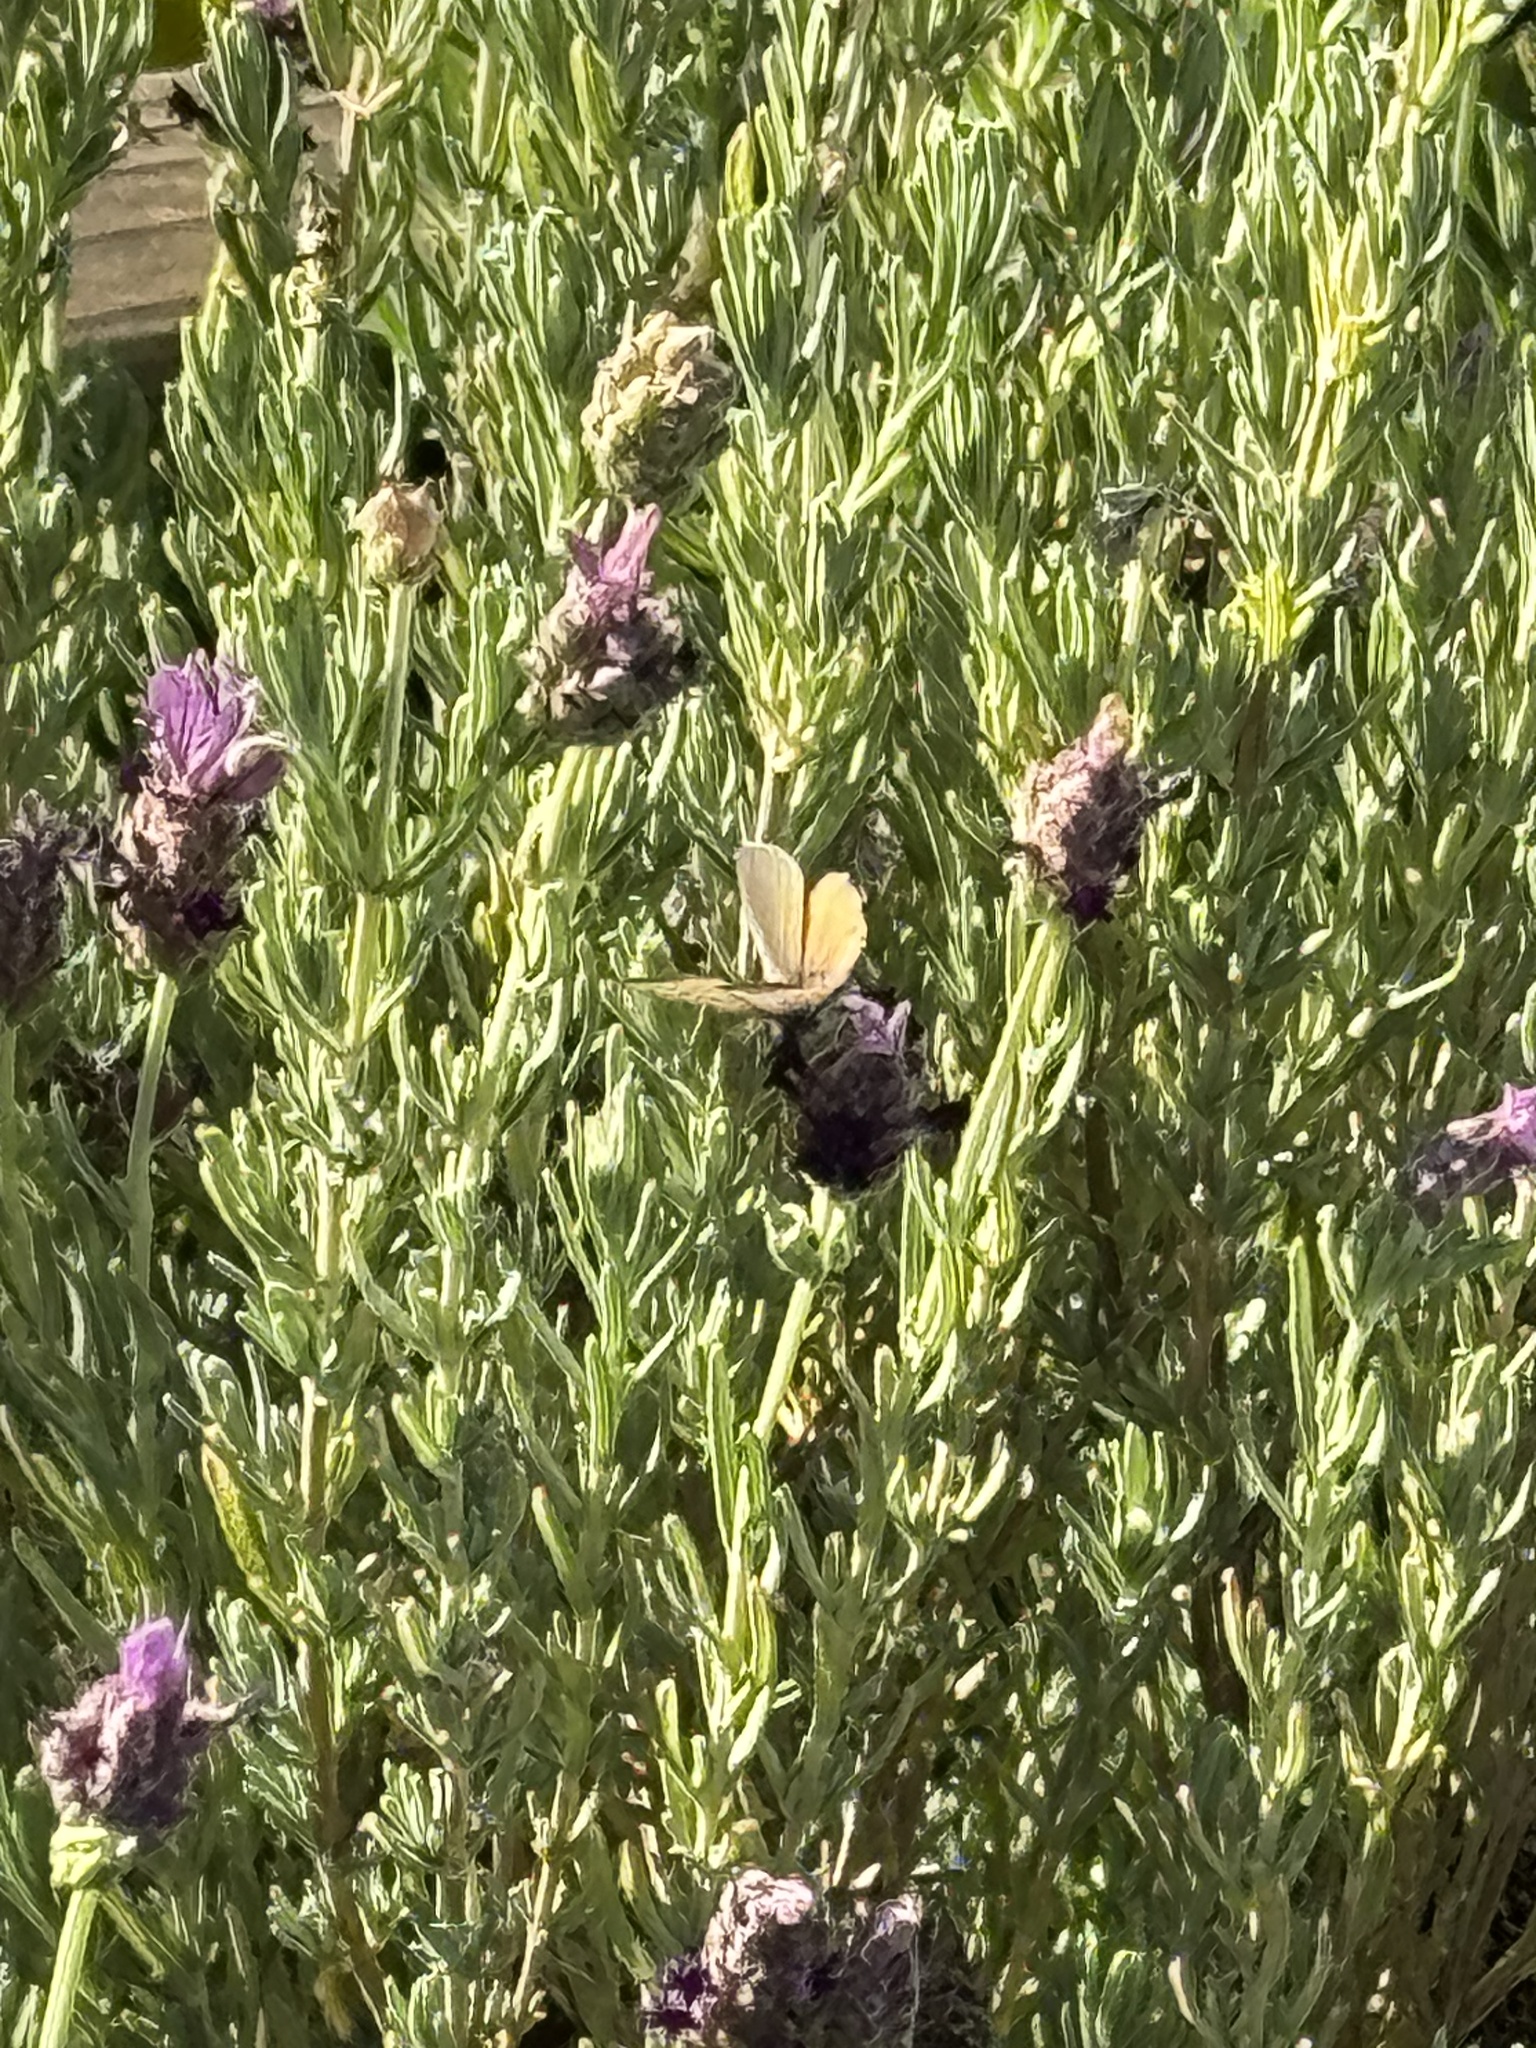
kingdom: Animalia
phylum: Arthropoda
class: Insecta
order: Lepidoptera
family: Lycaenidae
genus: Leptotes
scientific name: Leptotes marina
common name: Marine blue
